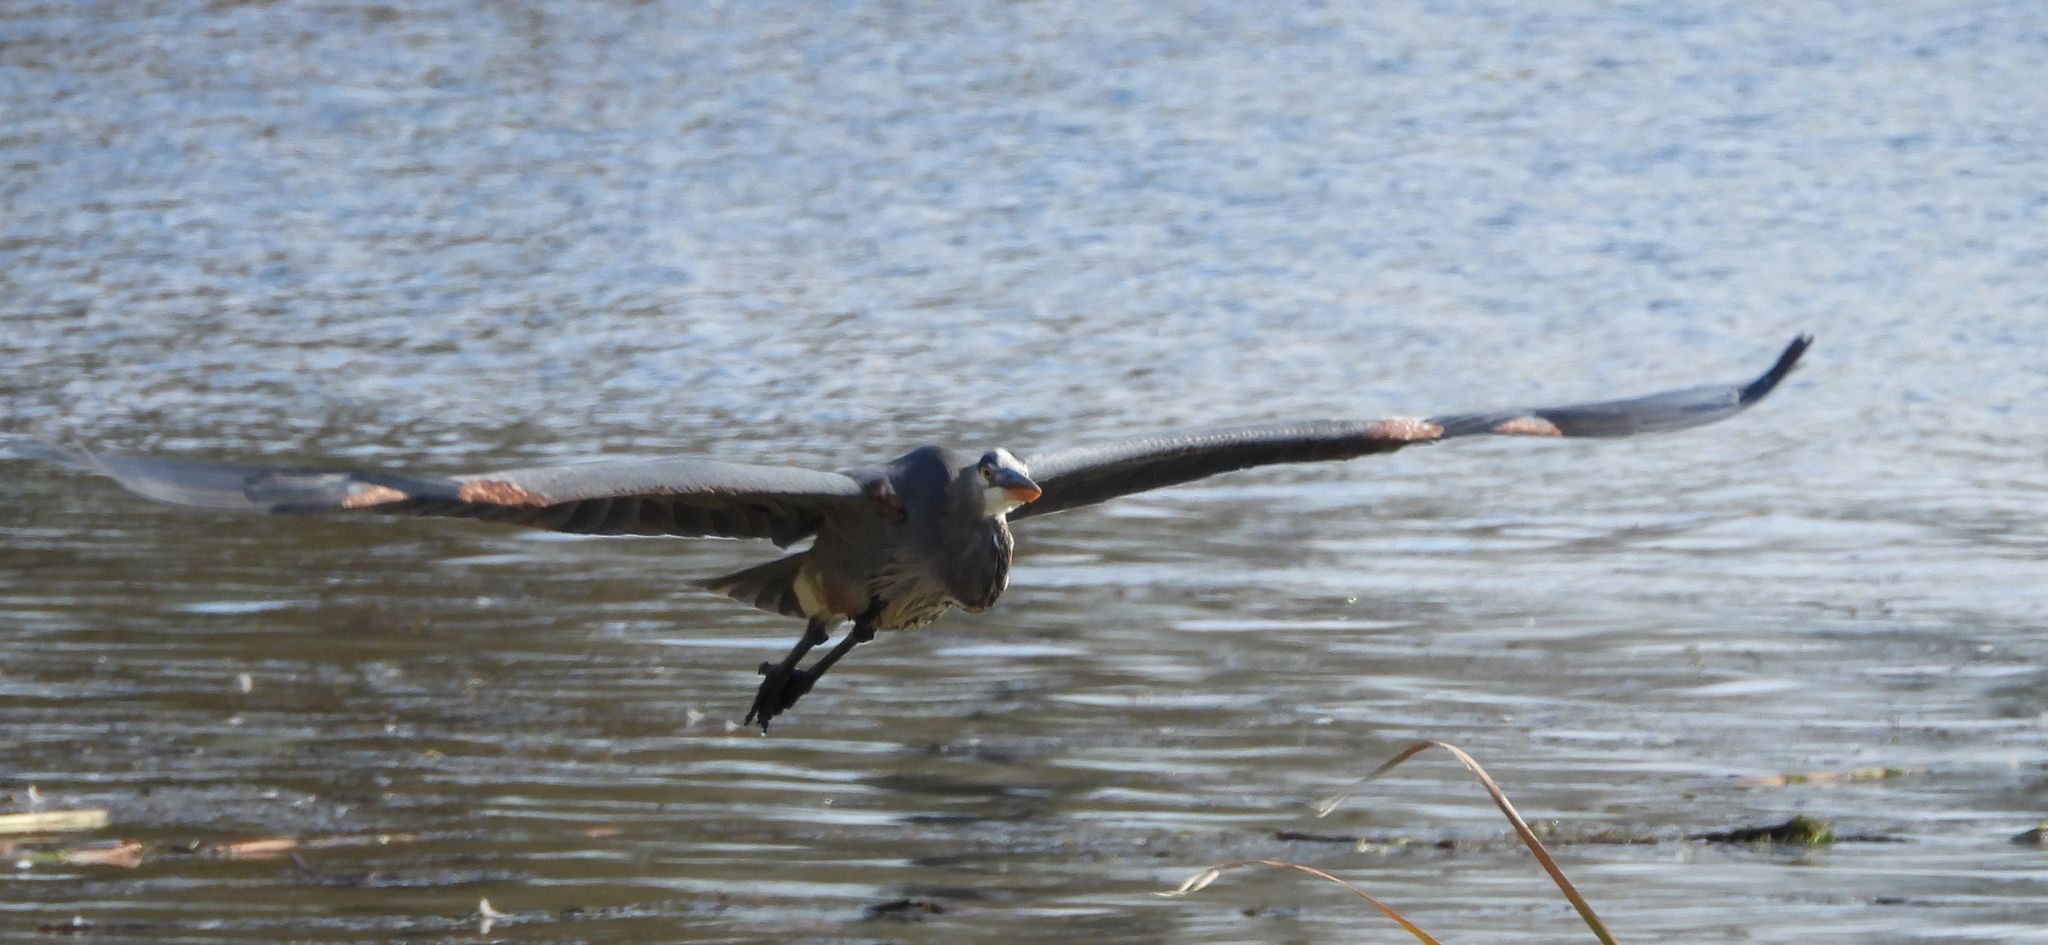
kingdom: Animalia
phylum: Chordata
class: Aves
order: Pelecaniformes
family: Ardeidae
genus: Ardea
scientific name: Ardea herodias
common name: Great blue heron
